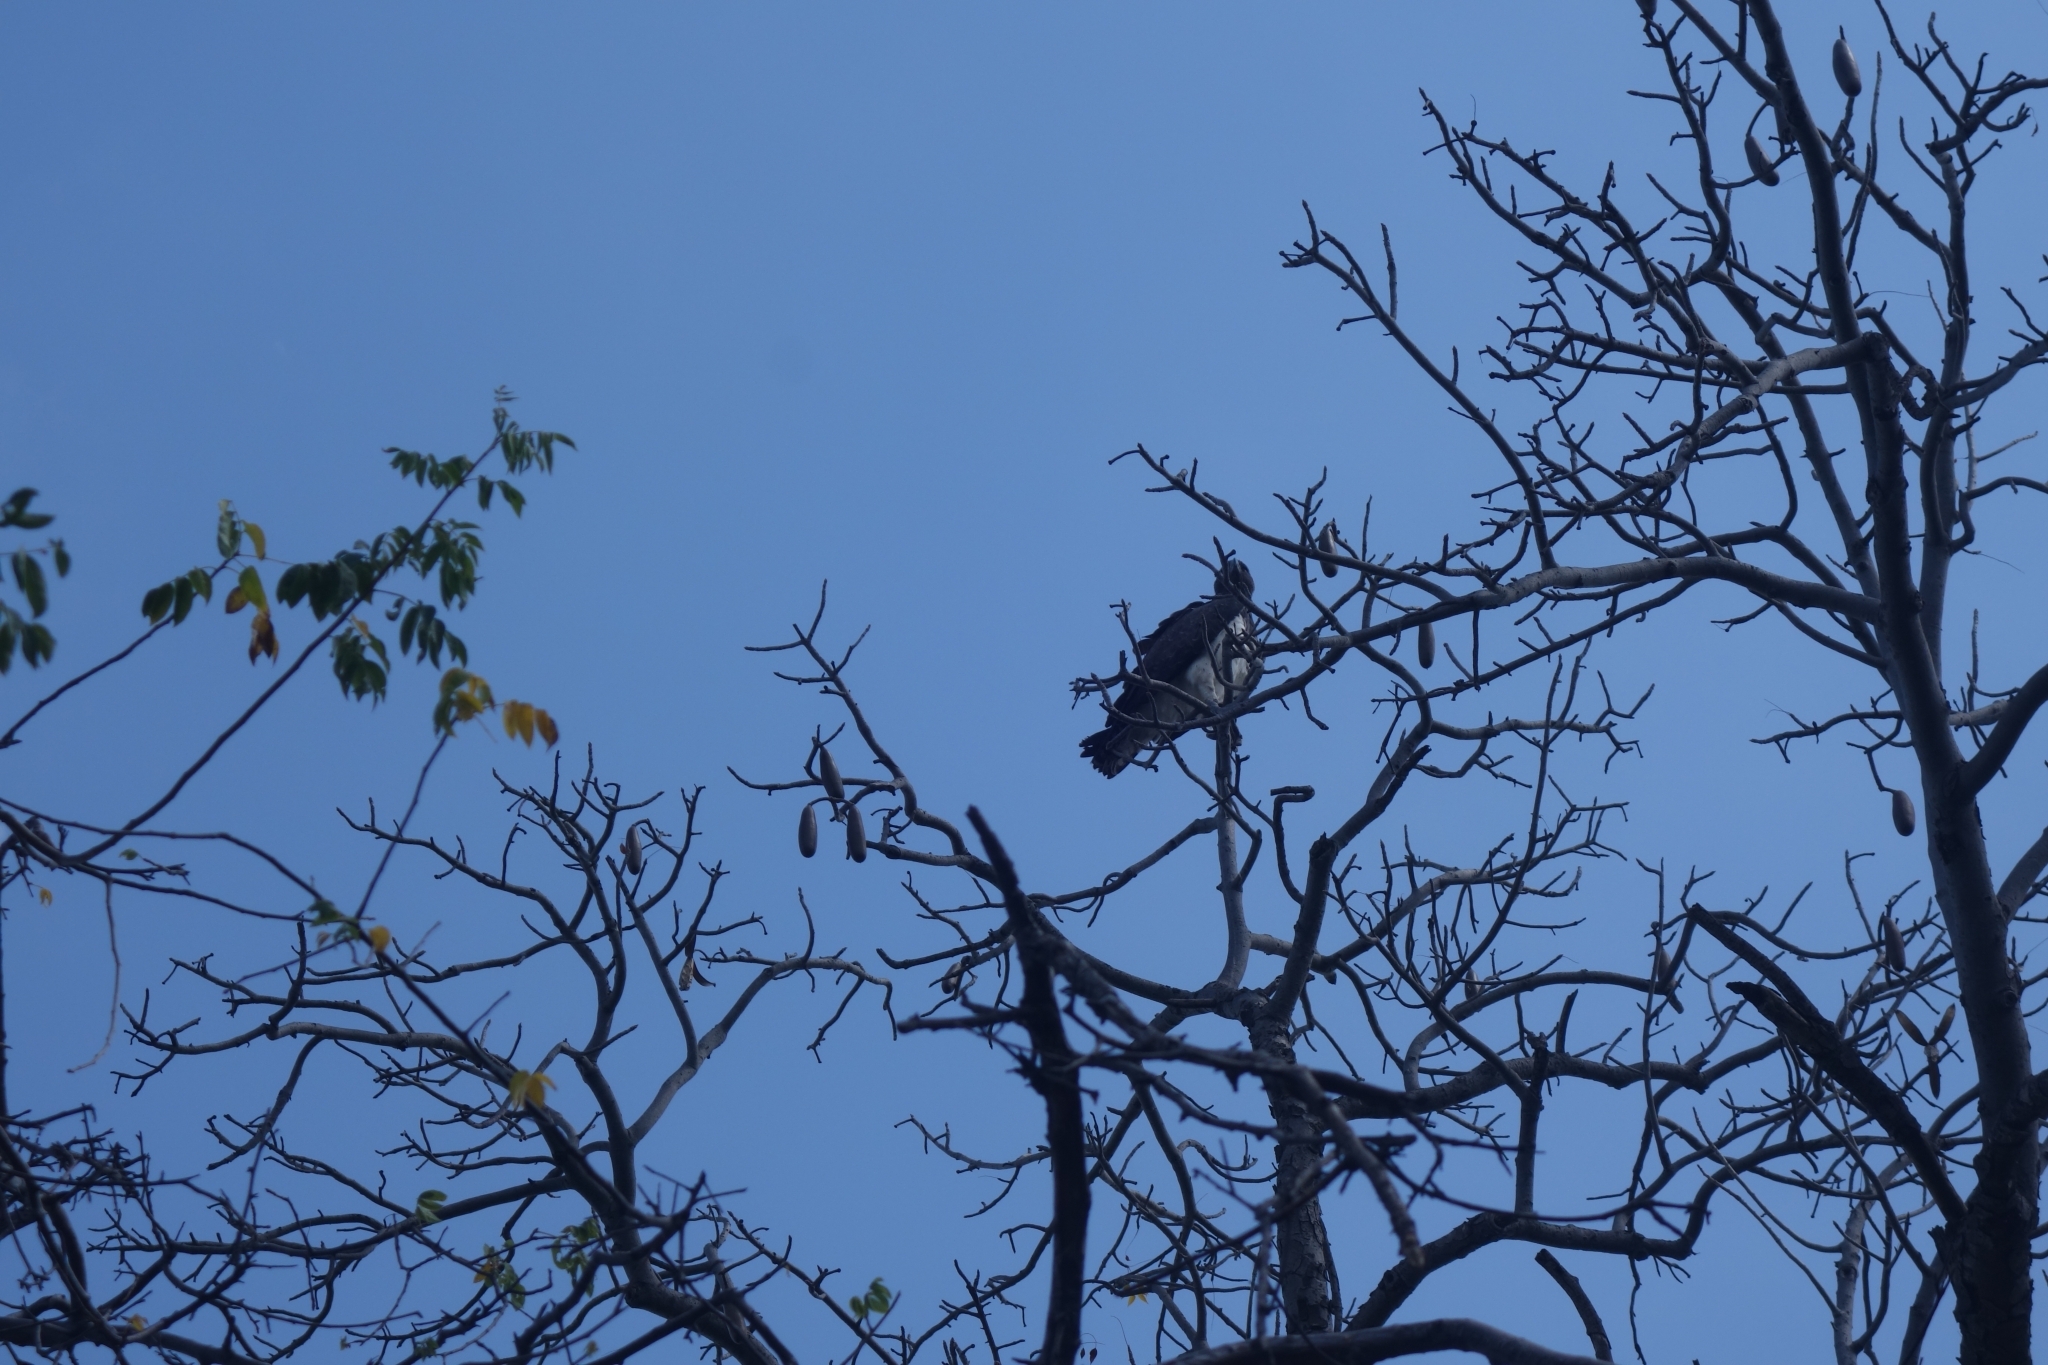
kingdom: Animalia
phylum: Chordata
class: Aves
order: Accipitriformes
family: Accipitridae
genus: Polemaetus
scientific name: Polemaetus bellicosus
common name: Martial eagle
